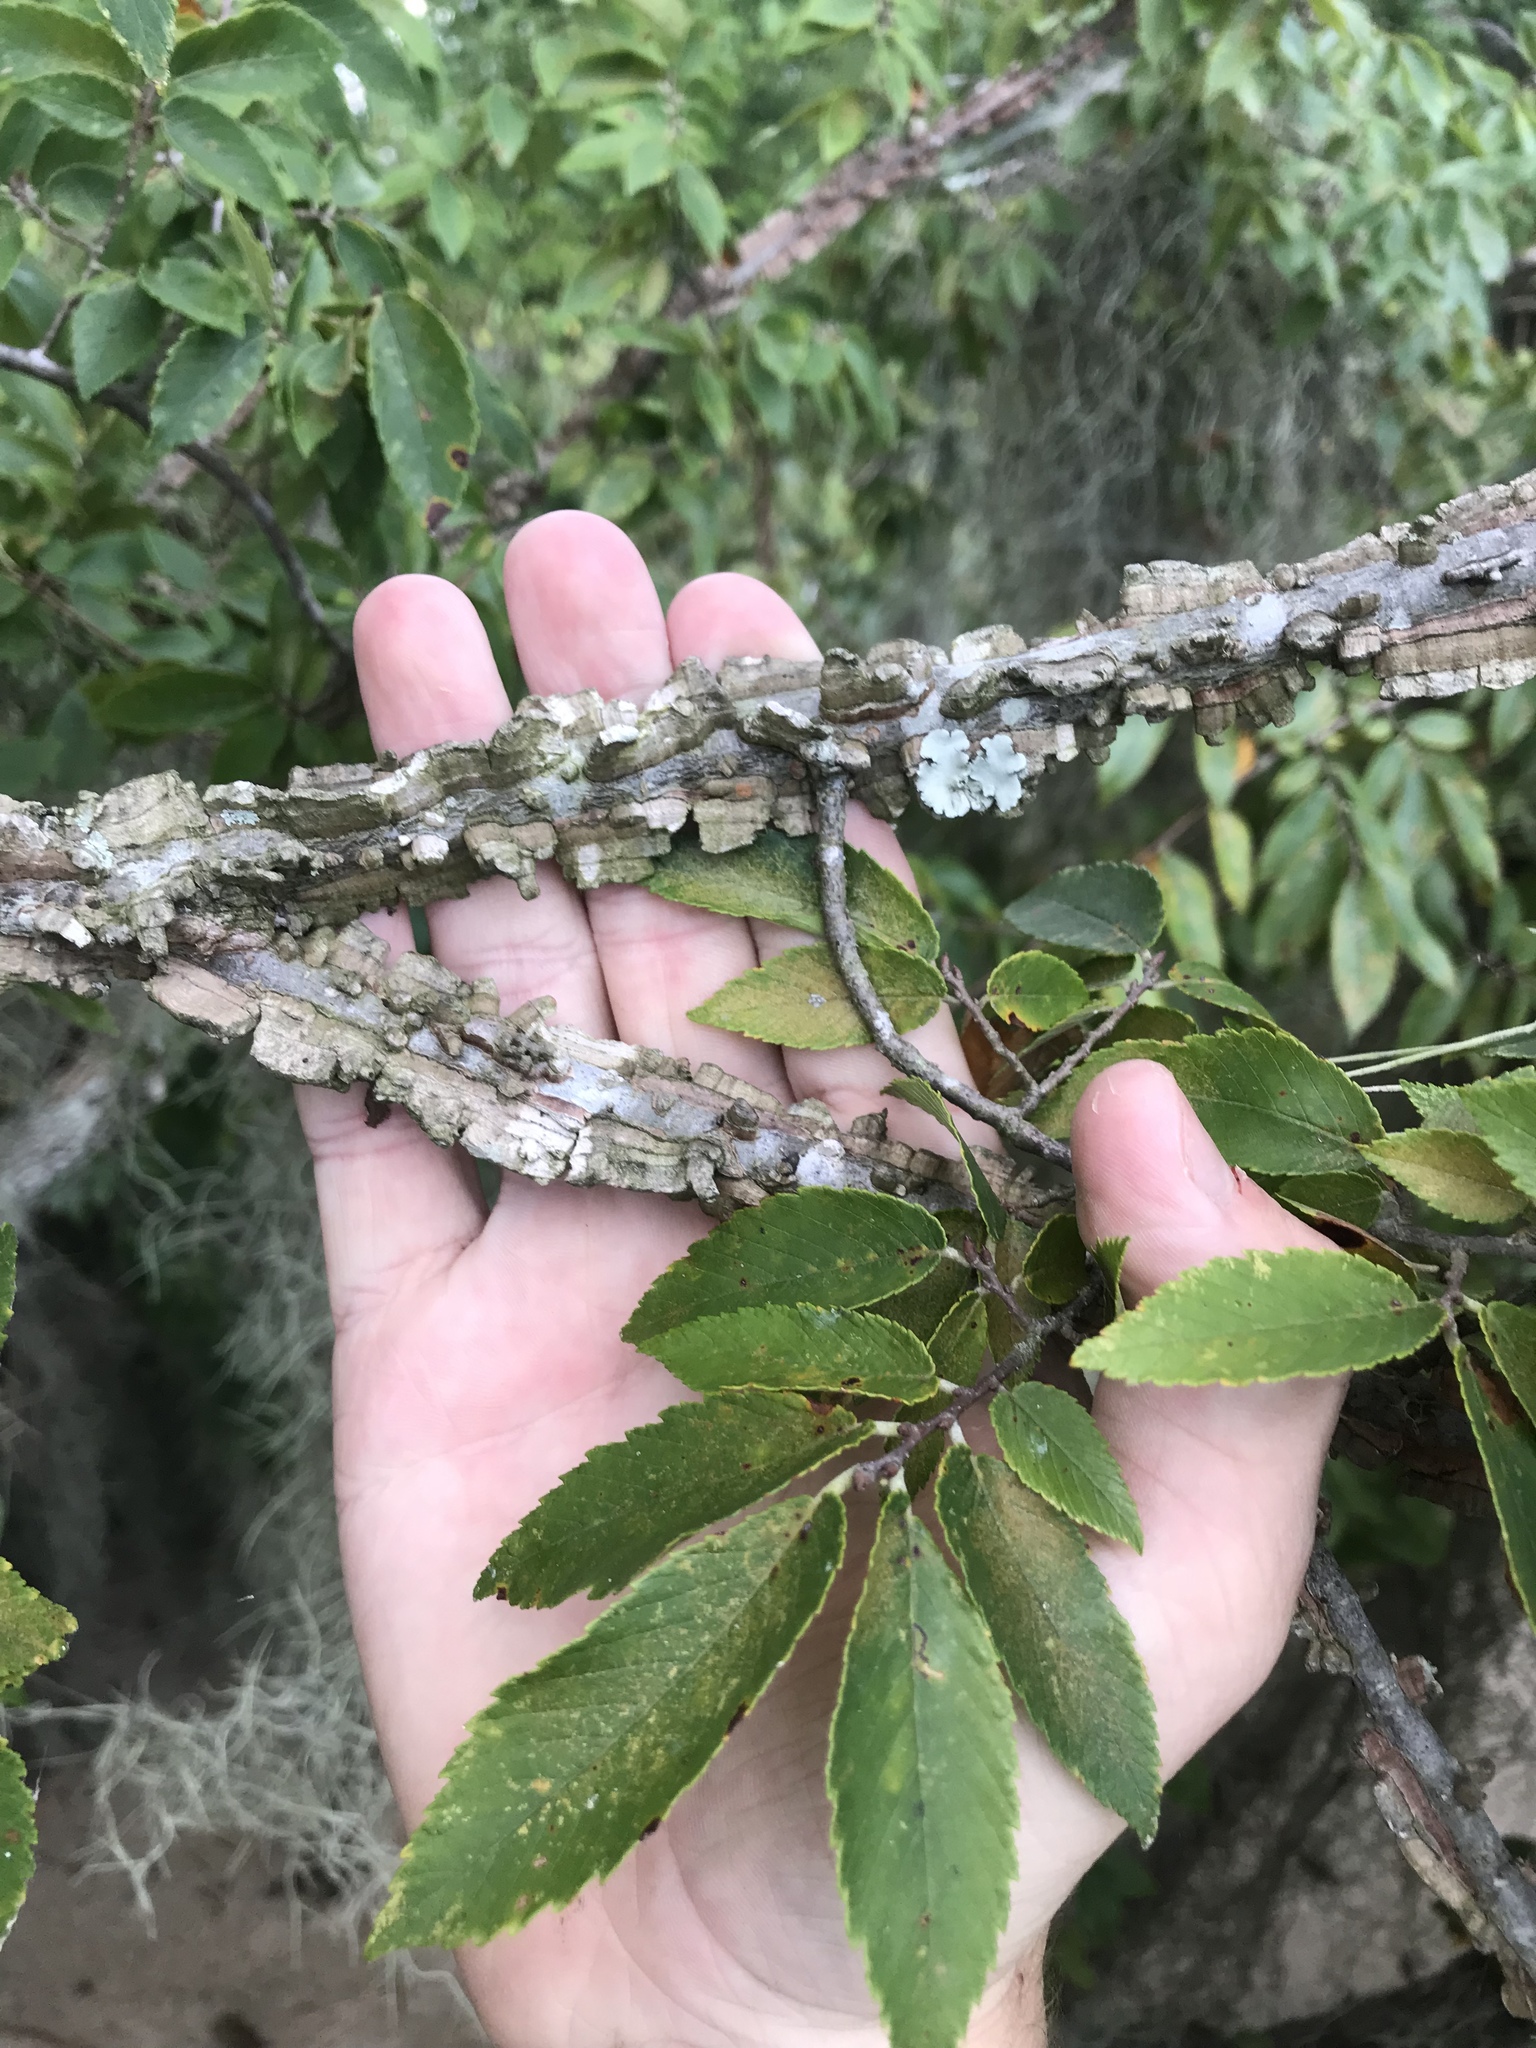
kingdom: Plantae
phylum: Tracheophyta
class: Magnoliopsida
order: Rosales
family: Ulmaceae
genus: Ulmus
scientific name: Ulmus alata
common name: Winged elm
